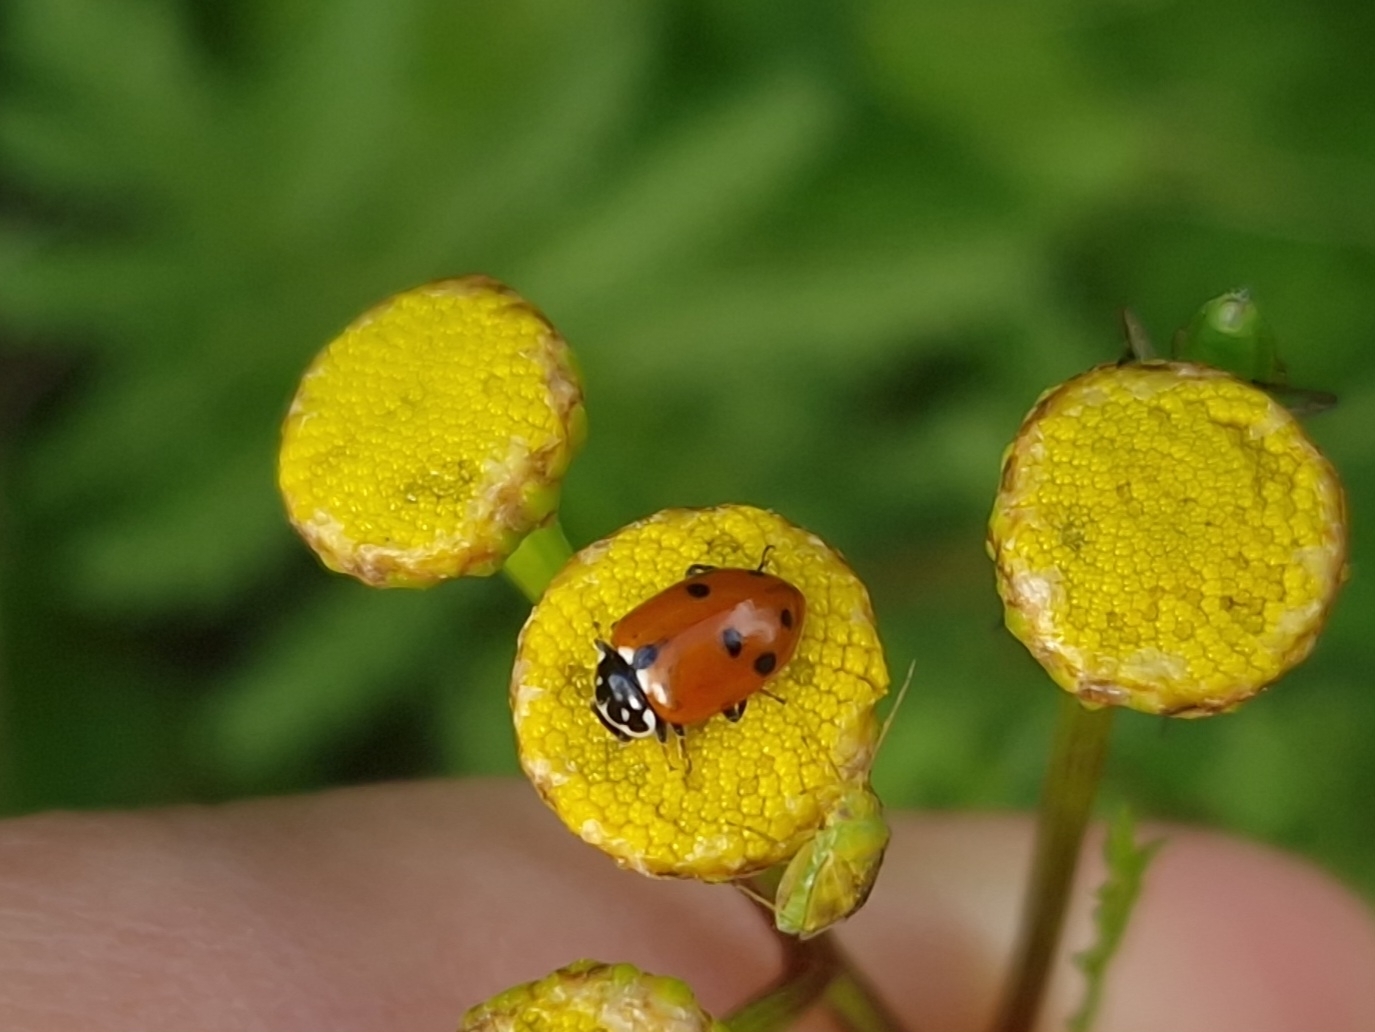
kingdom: Animalia
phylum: Arthropoda
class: Insecta
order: Coleoptera
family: Coccinellidae
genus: Hippodamia
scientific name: Hippodamia variegata
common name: Ladybird beetle
